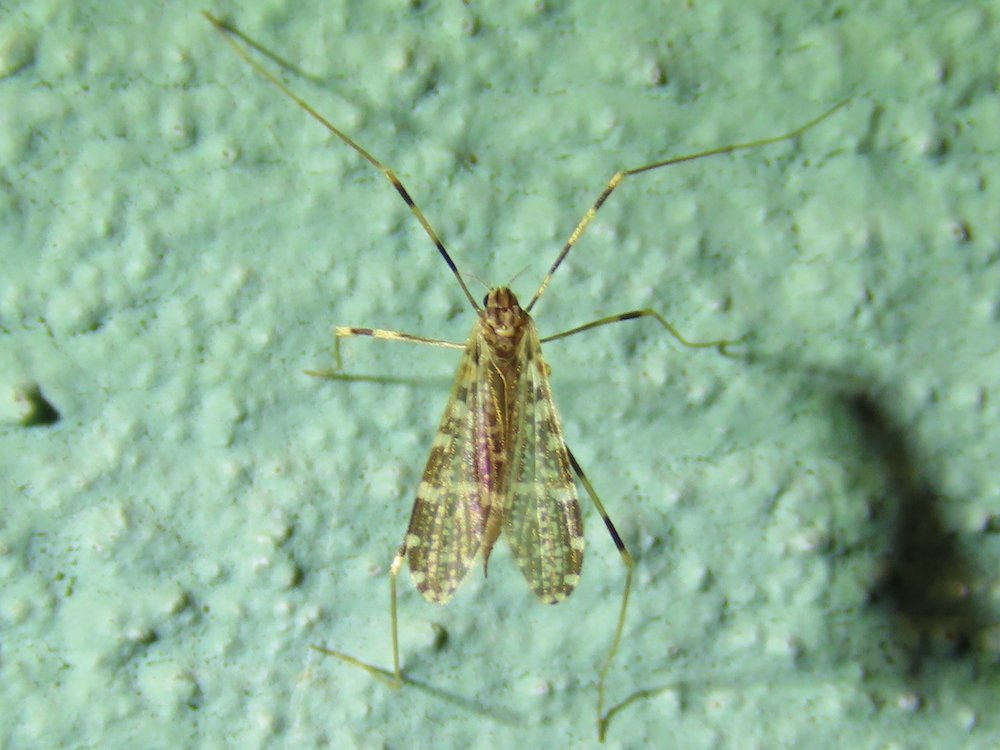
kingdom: Animalia
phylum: Arthropoda
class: Insecta
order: Diptera
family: Limoniidae
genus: Erioptera
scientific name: Erioptera caliptera
